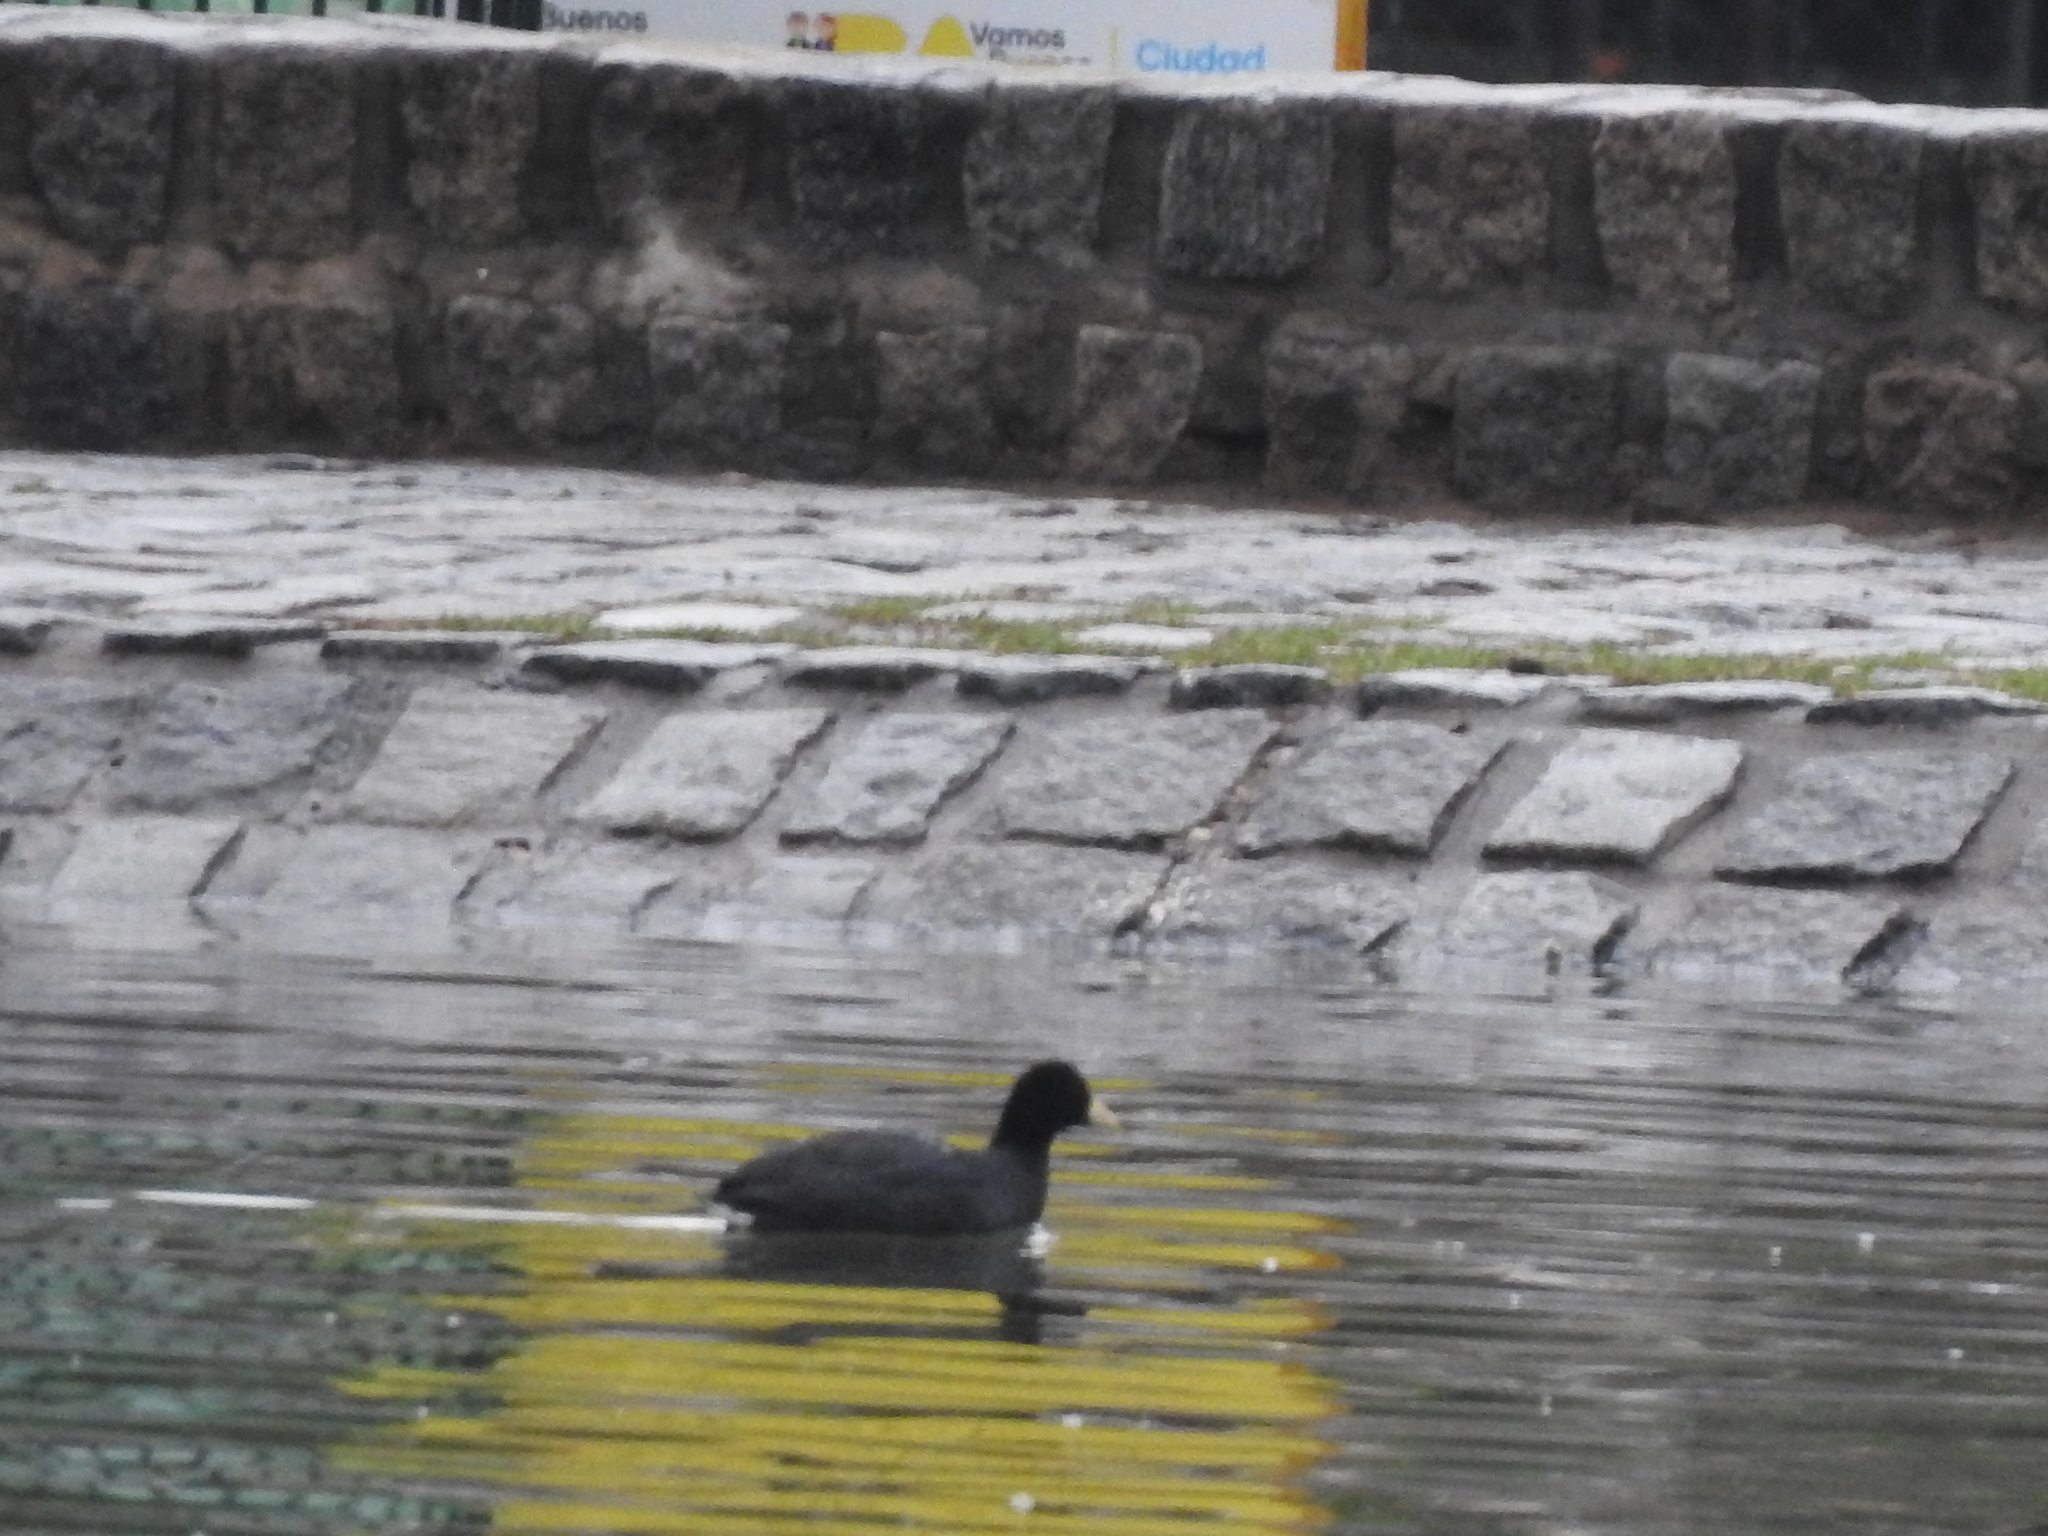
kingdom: Animalia
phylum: Chordata
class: Aves
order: Gruiformes
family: Rallidae
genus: Fulica
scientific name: Fulica leucoptera
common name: White-winged coot
